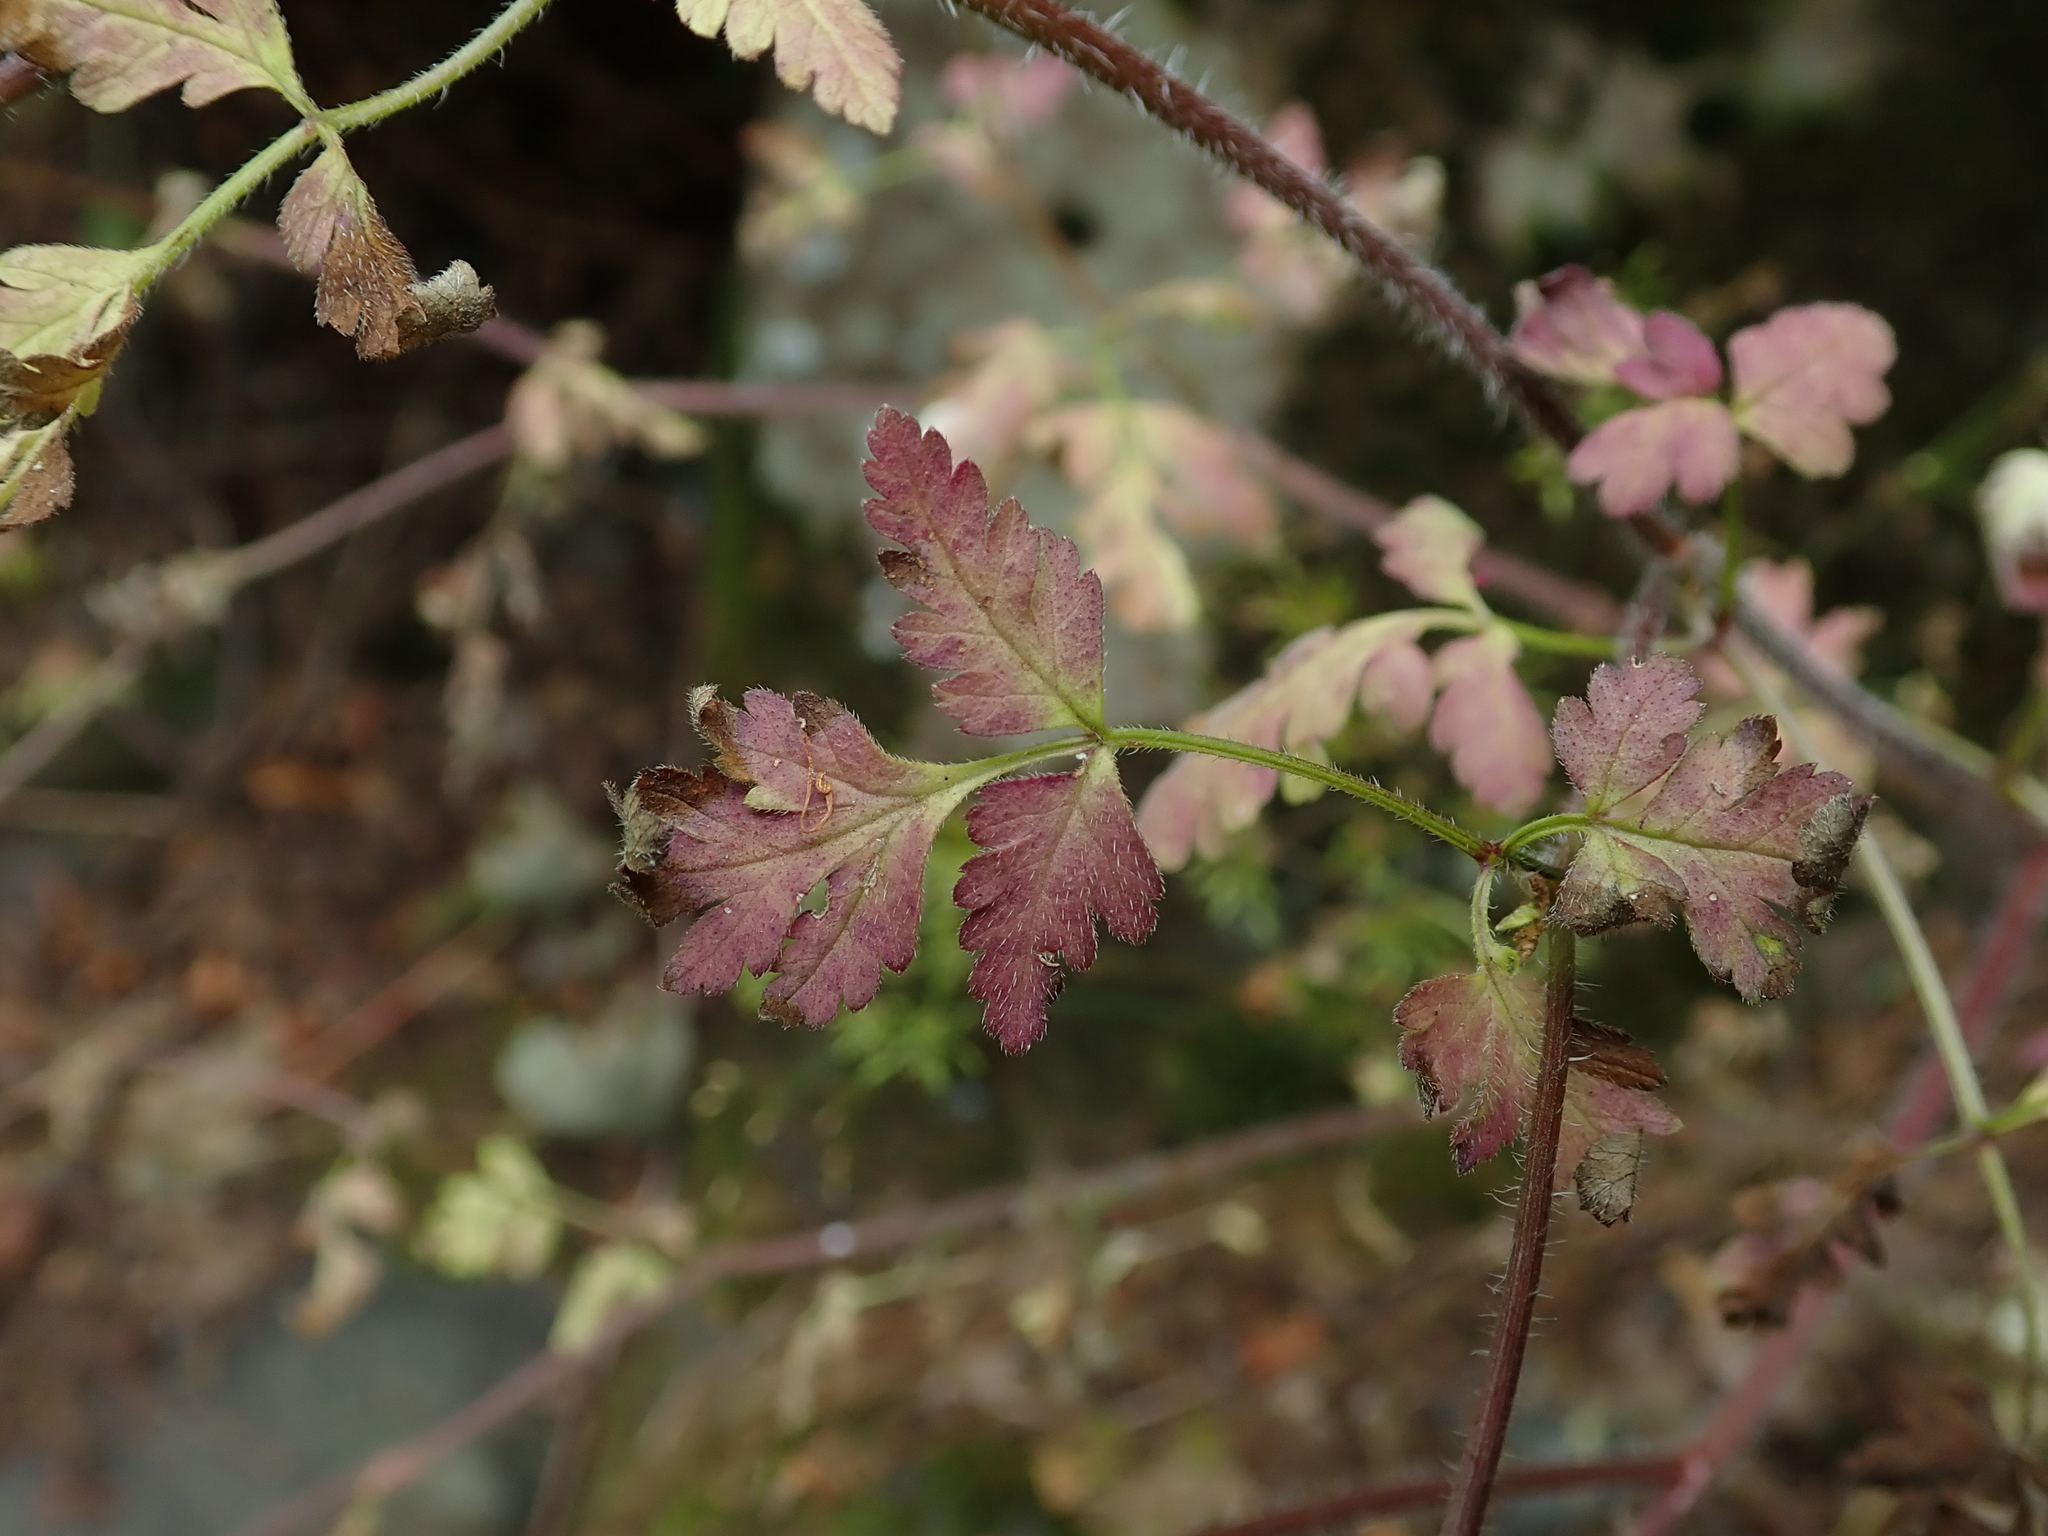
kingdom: Plantae
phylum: Tracheophyta
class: Magnoliopsida
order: Apiales
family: Apiaceae
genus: Chaerophyllum
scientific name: Chaerophyllum temulum
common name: Rough chervil
